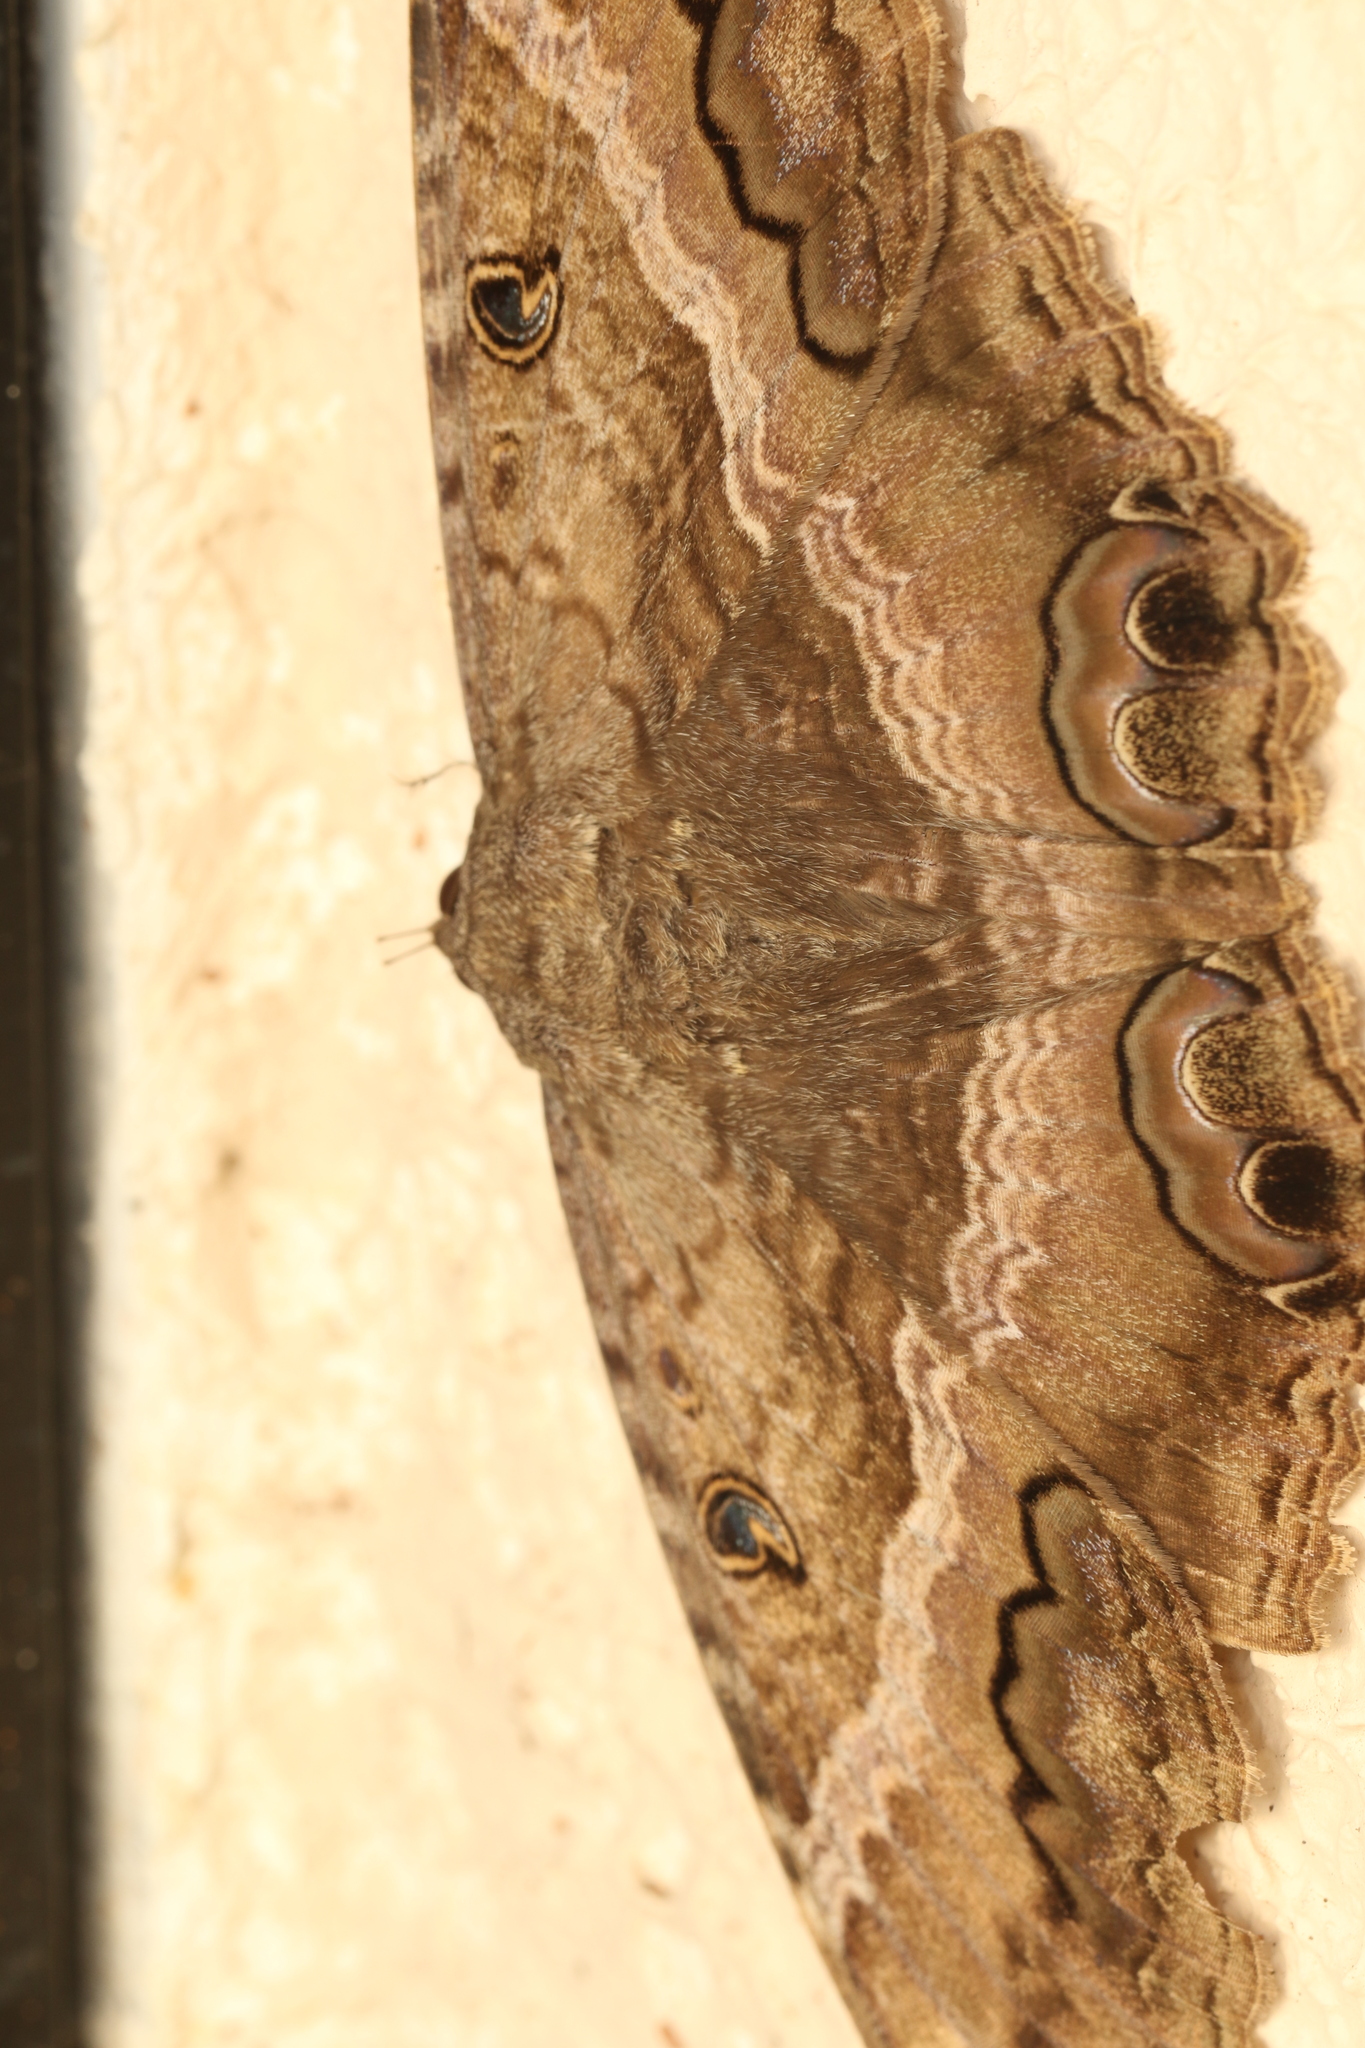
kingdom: Animalia
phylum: Arthropoda
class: Insecta
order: Lepidoptera
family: Erebidae
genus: Ascalapha
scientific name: Ascalapha odorata
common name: Black witch
